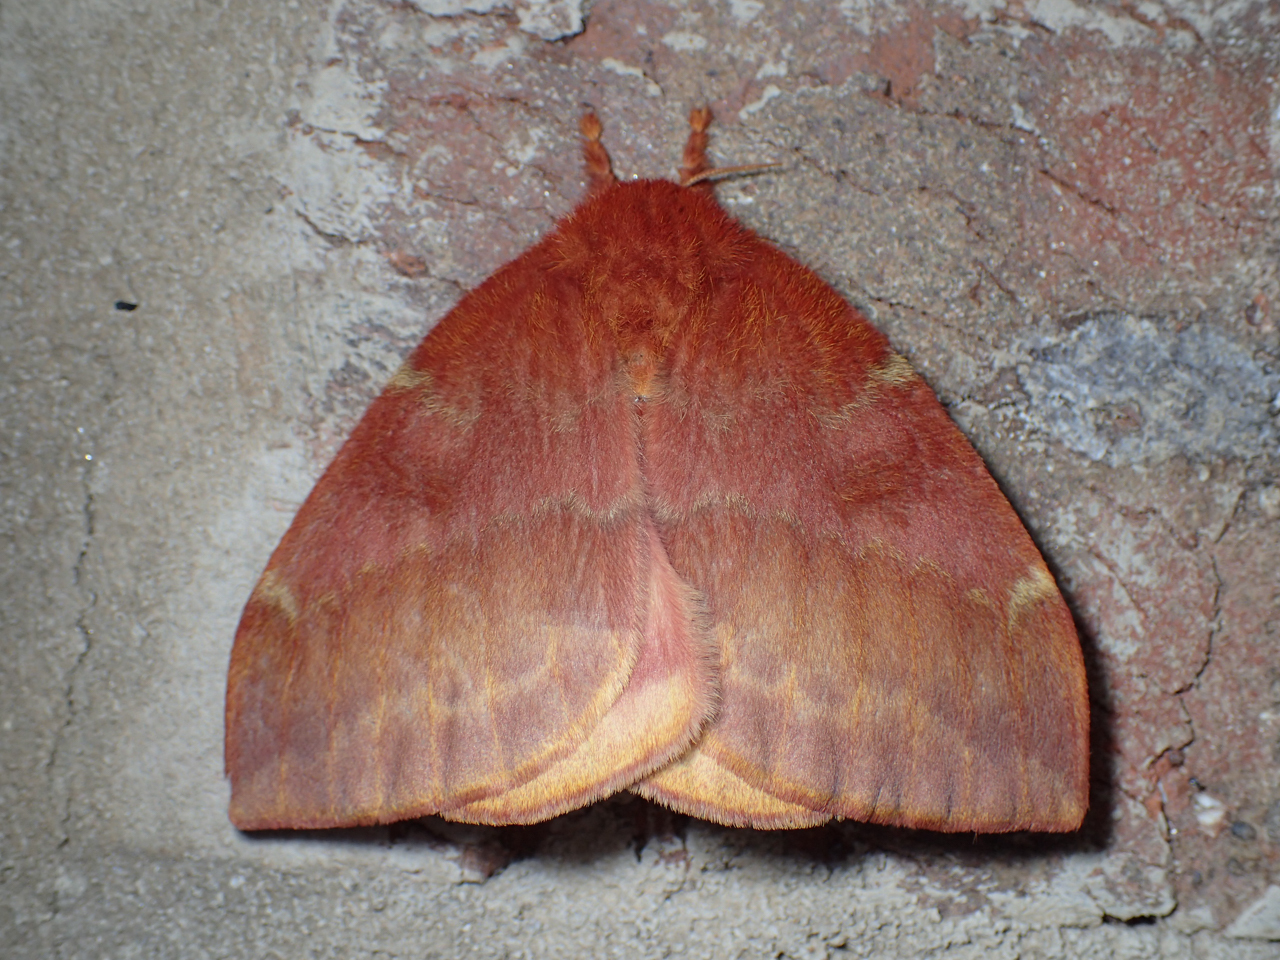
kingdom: Animalia
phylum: Arthropoda
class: Insecta
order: Lepidoptera
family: Saturniidae
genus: Automeris
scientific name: Automeris io
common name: Io moth
